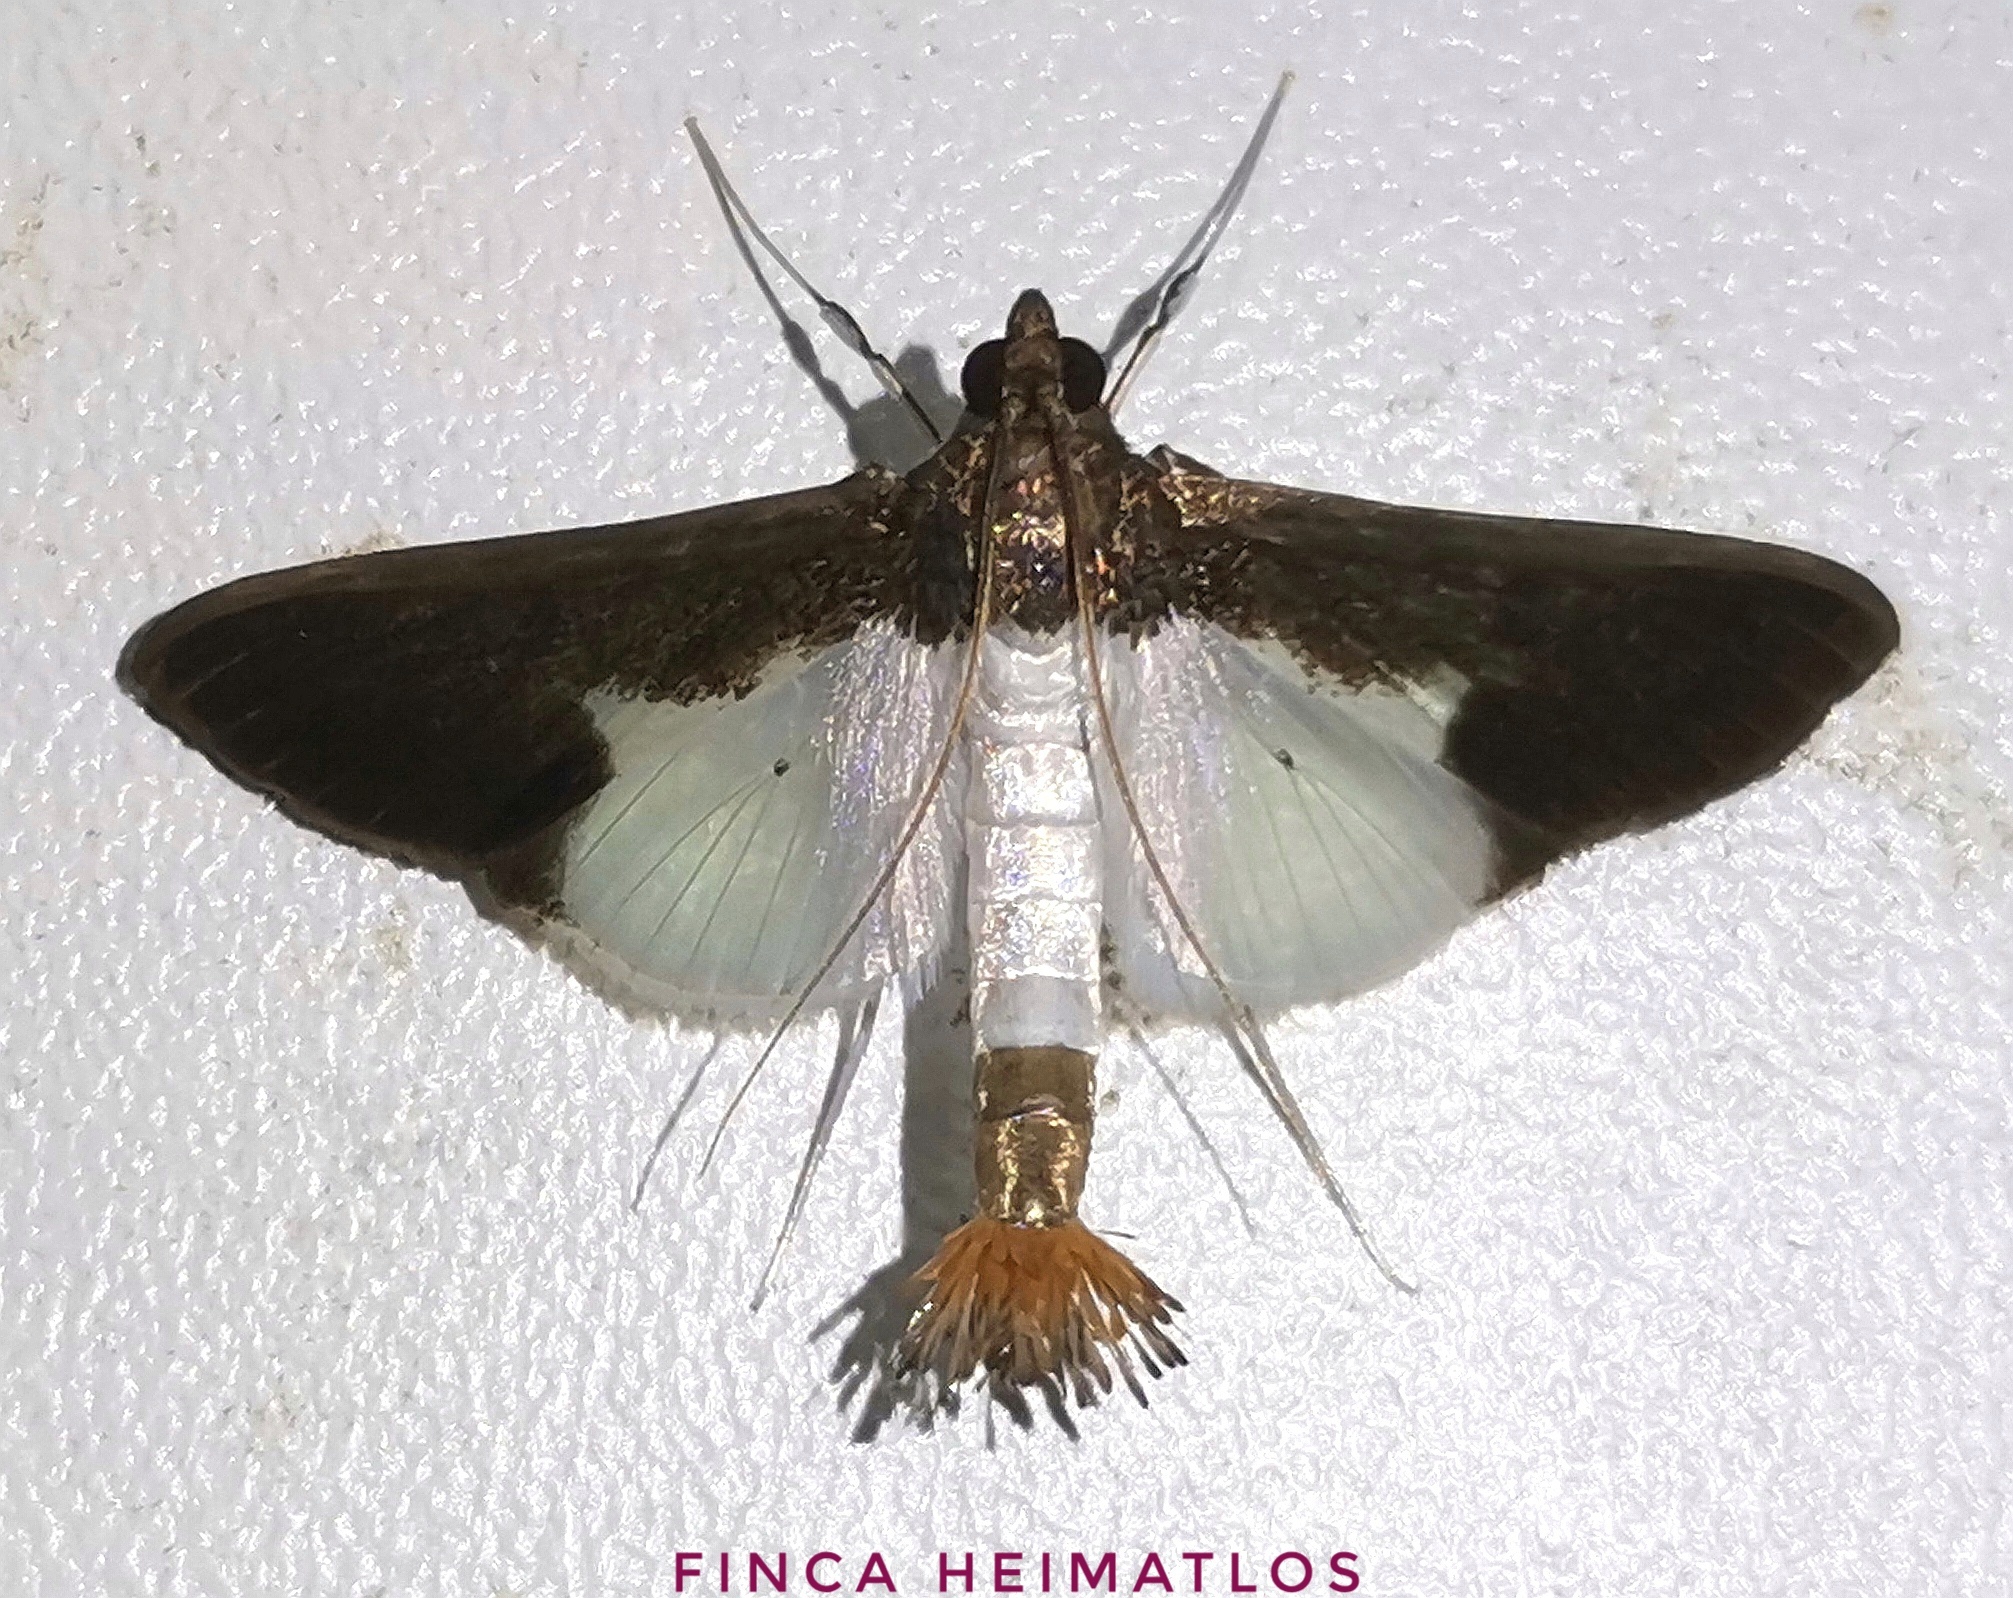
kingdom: Animalia
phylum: Arthropoda
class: Insecta
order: Lepidoptera
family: Crambidae
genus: Diaphania
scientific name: Diaphania yurakyana
